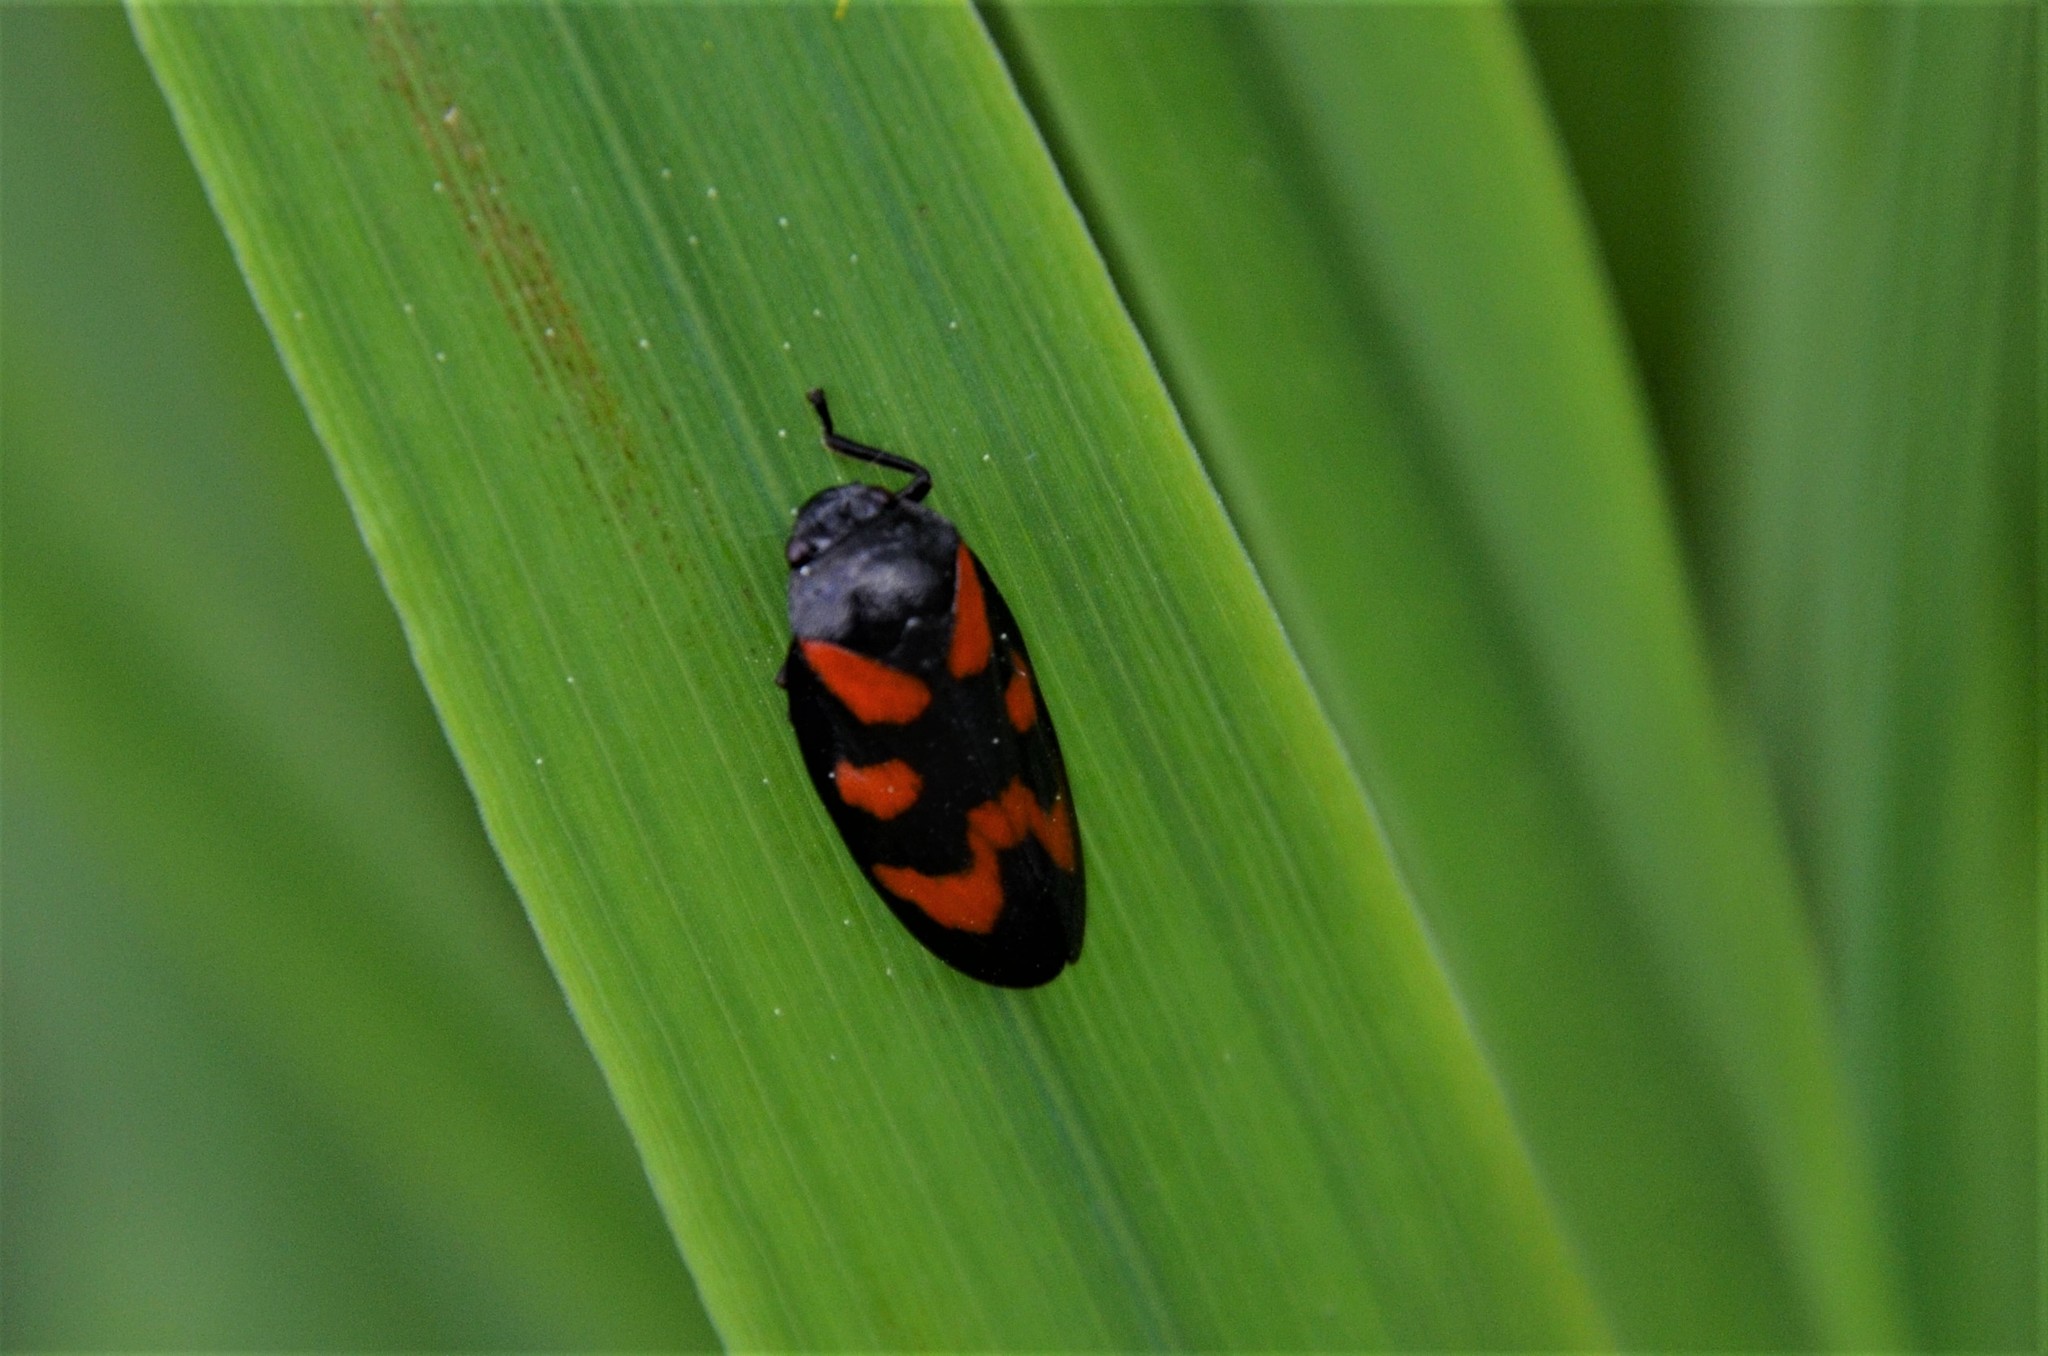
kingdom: Animalia
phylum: Arthropoda
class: Insecta
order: Hemiptera
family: Cercopidae
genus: Cercopis
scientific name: Cercopis vulnerata
